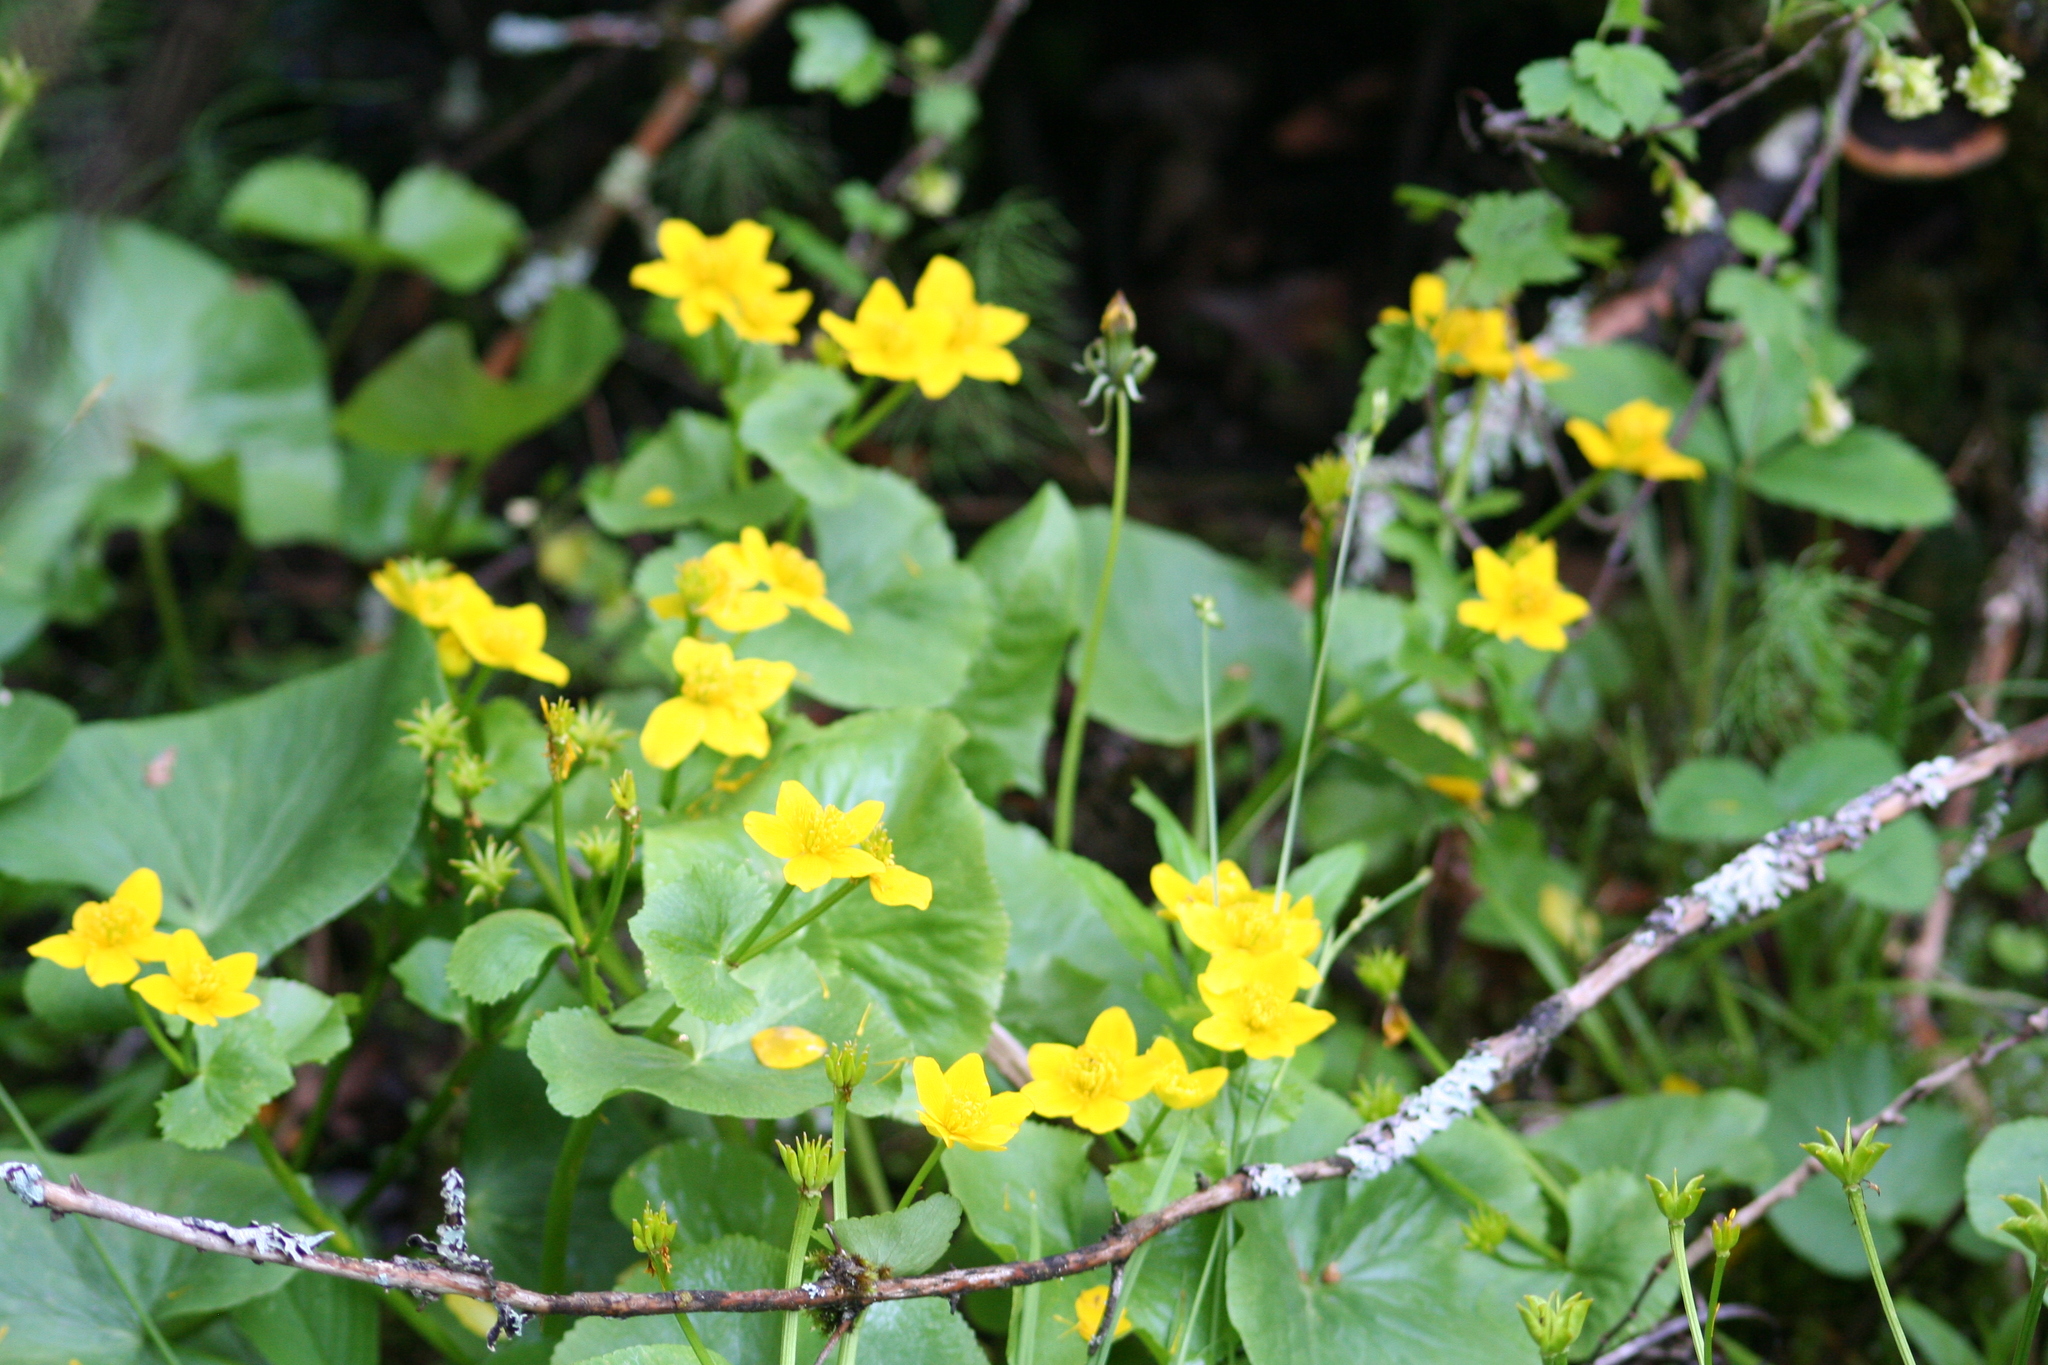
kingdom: Plantae
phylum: Tracheophyta
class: Magnoliopsida
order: Ranunculales
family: Ranunculaceae
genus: Caltha
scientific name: Caltha palustris
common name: Marsh marigold
